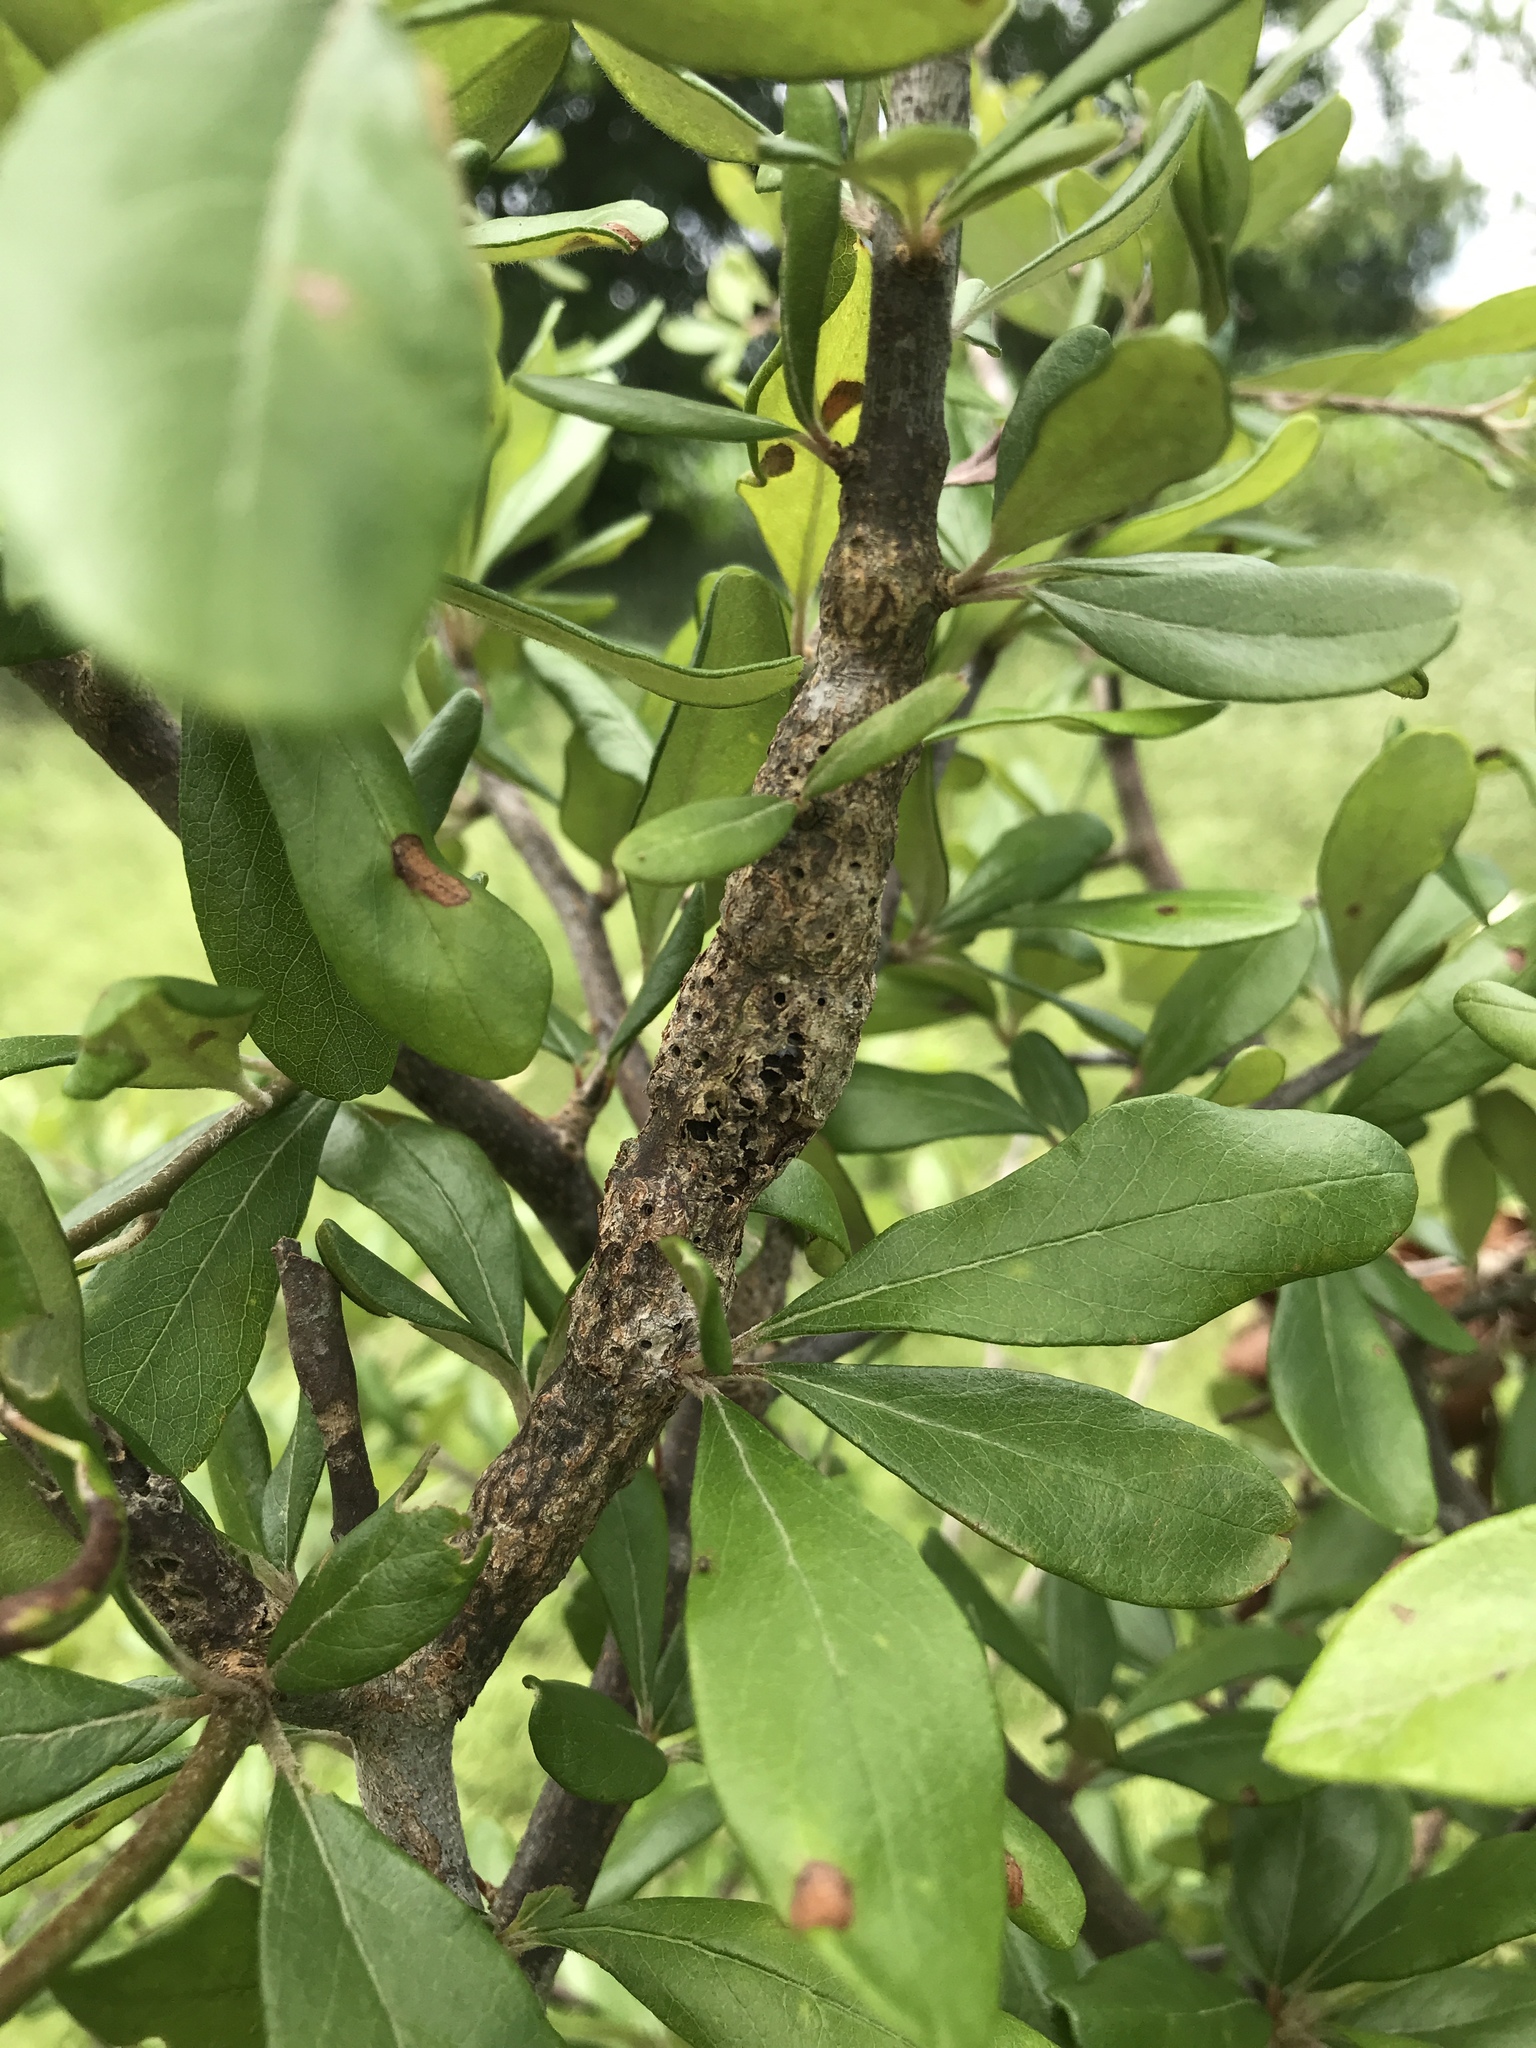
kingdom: Animalia
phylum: Arthropoda
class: Insecta
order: Diptera
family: Cecidomyiidae
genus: Bruggmanniella
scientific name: Bruggmanniella bumeliae
